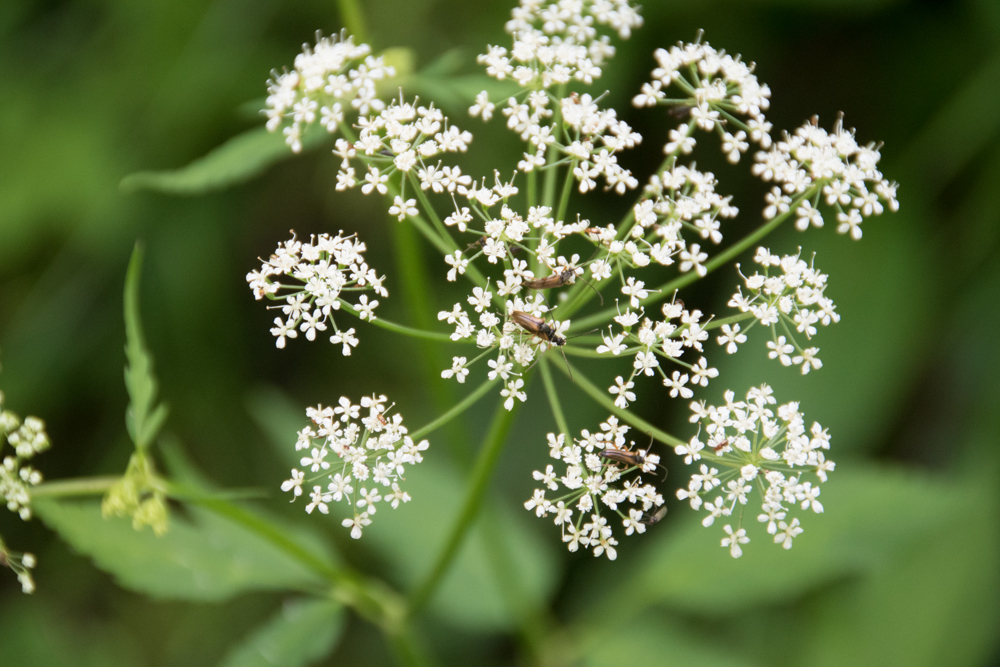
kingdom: Animalia
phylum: Arthropoda
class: Insecta
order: Coleoptera
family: Cerambycidae
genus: Alosterna
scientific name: Alosterna tabacicolor
